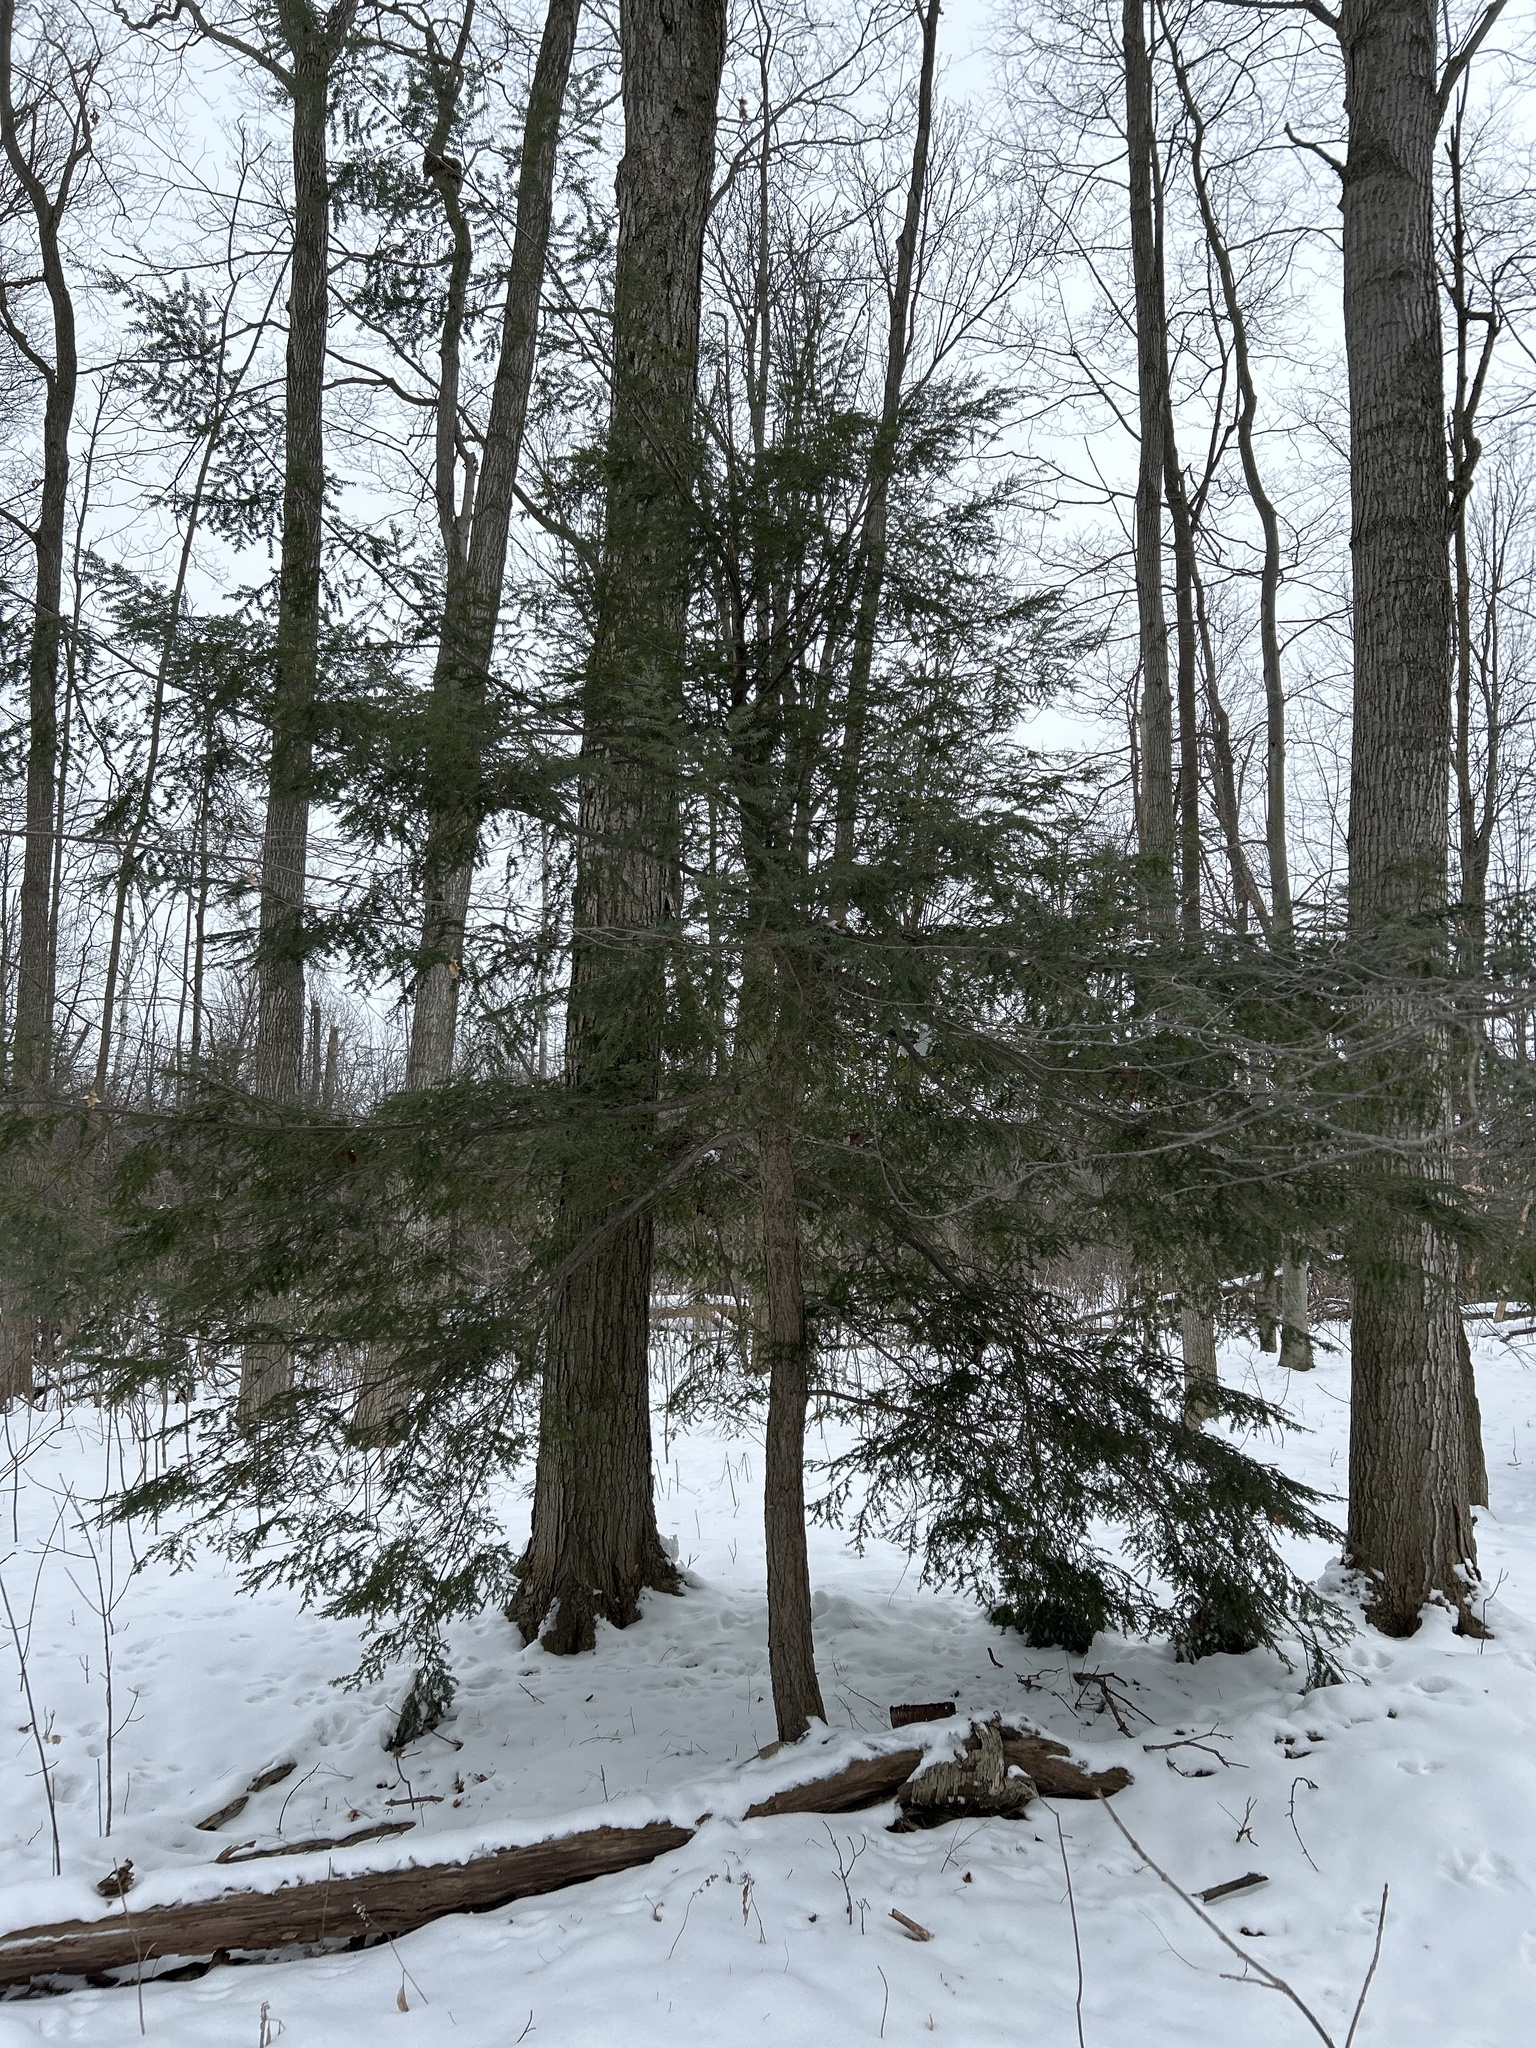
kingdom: Plantae
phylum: Tracheophyta
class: Pinopsida
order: Pinales
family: Pinaceae
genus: Tsuga
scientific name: Tsuga canadensis
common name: Eastern hemlock
